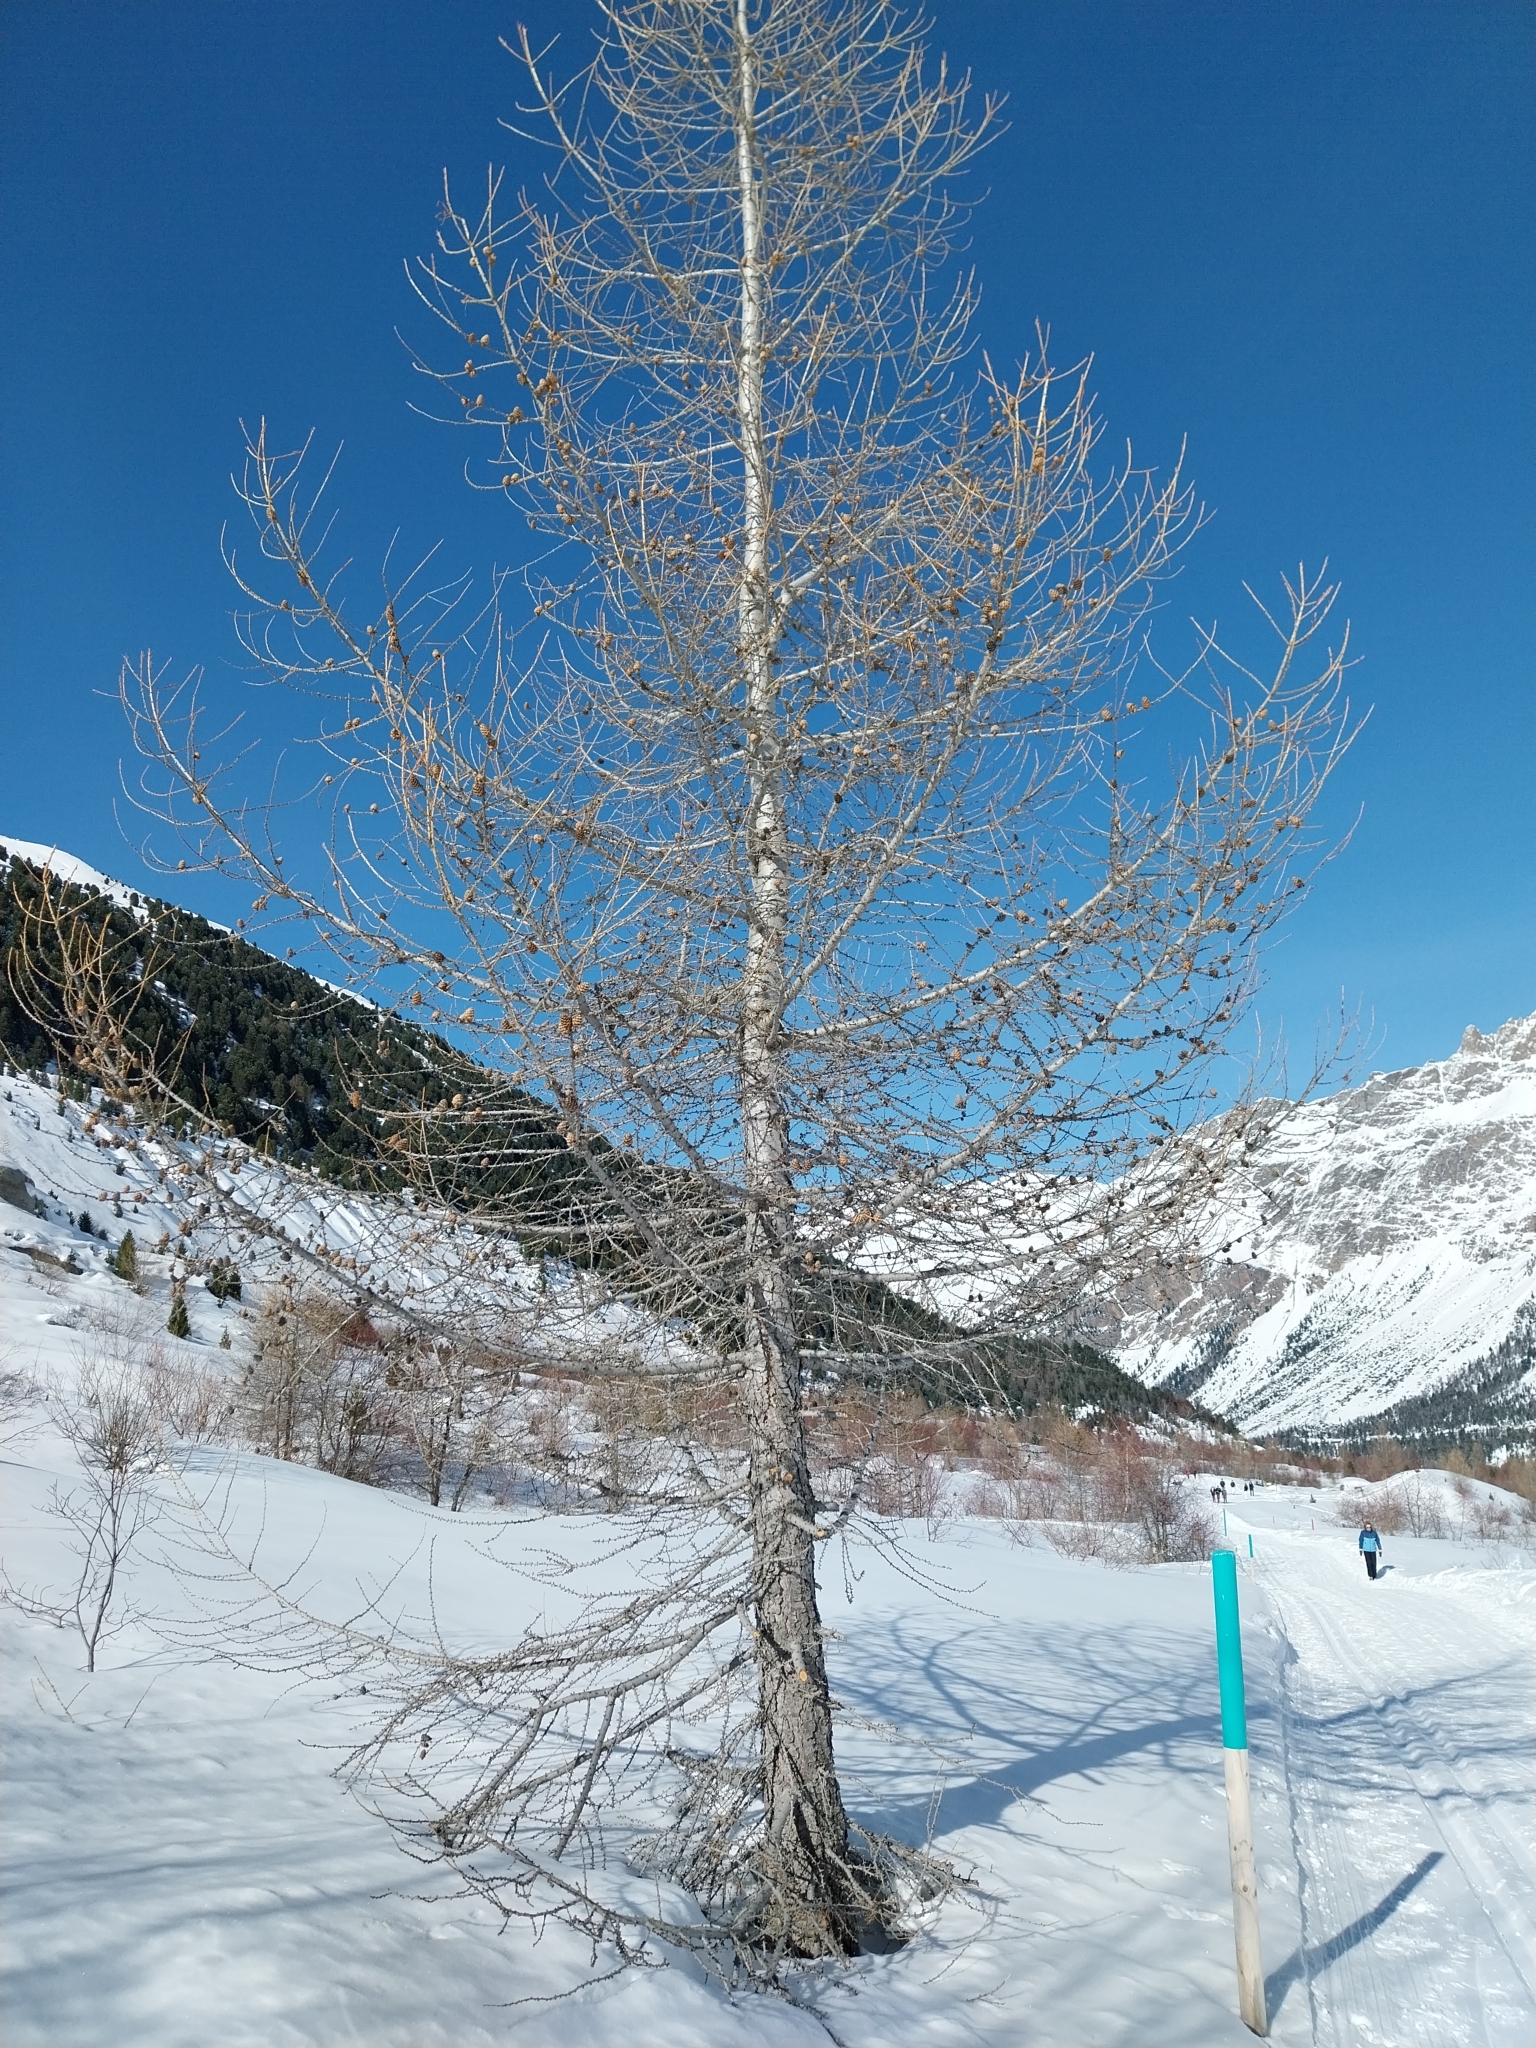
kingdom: Plantae
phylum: Tracheophyta
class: Pinopsida
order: Pinales
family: Pinaceae
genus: Larix
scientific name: Larix decidua
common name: European larch
